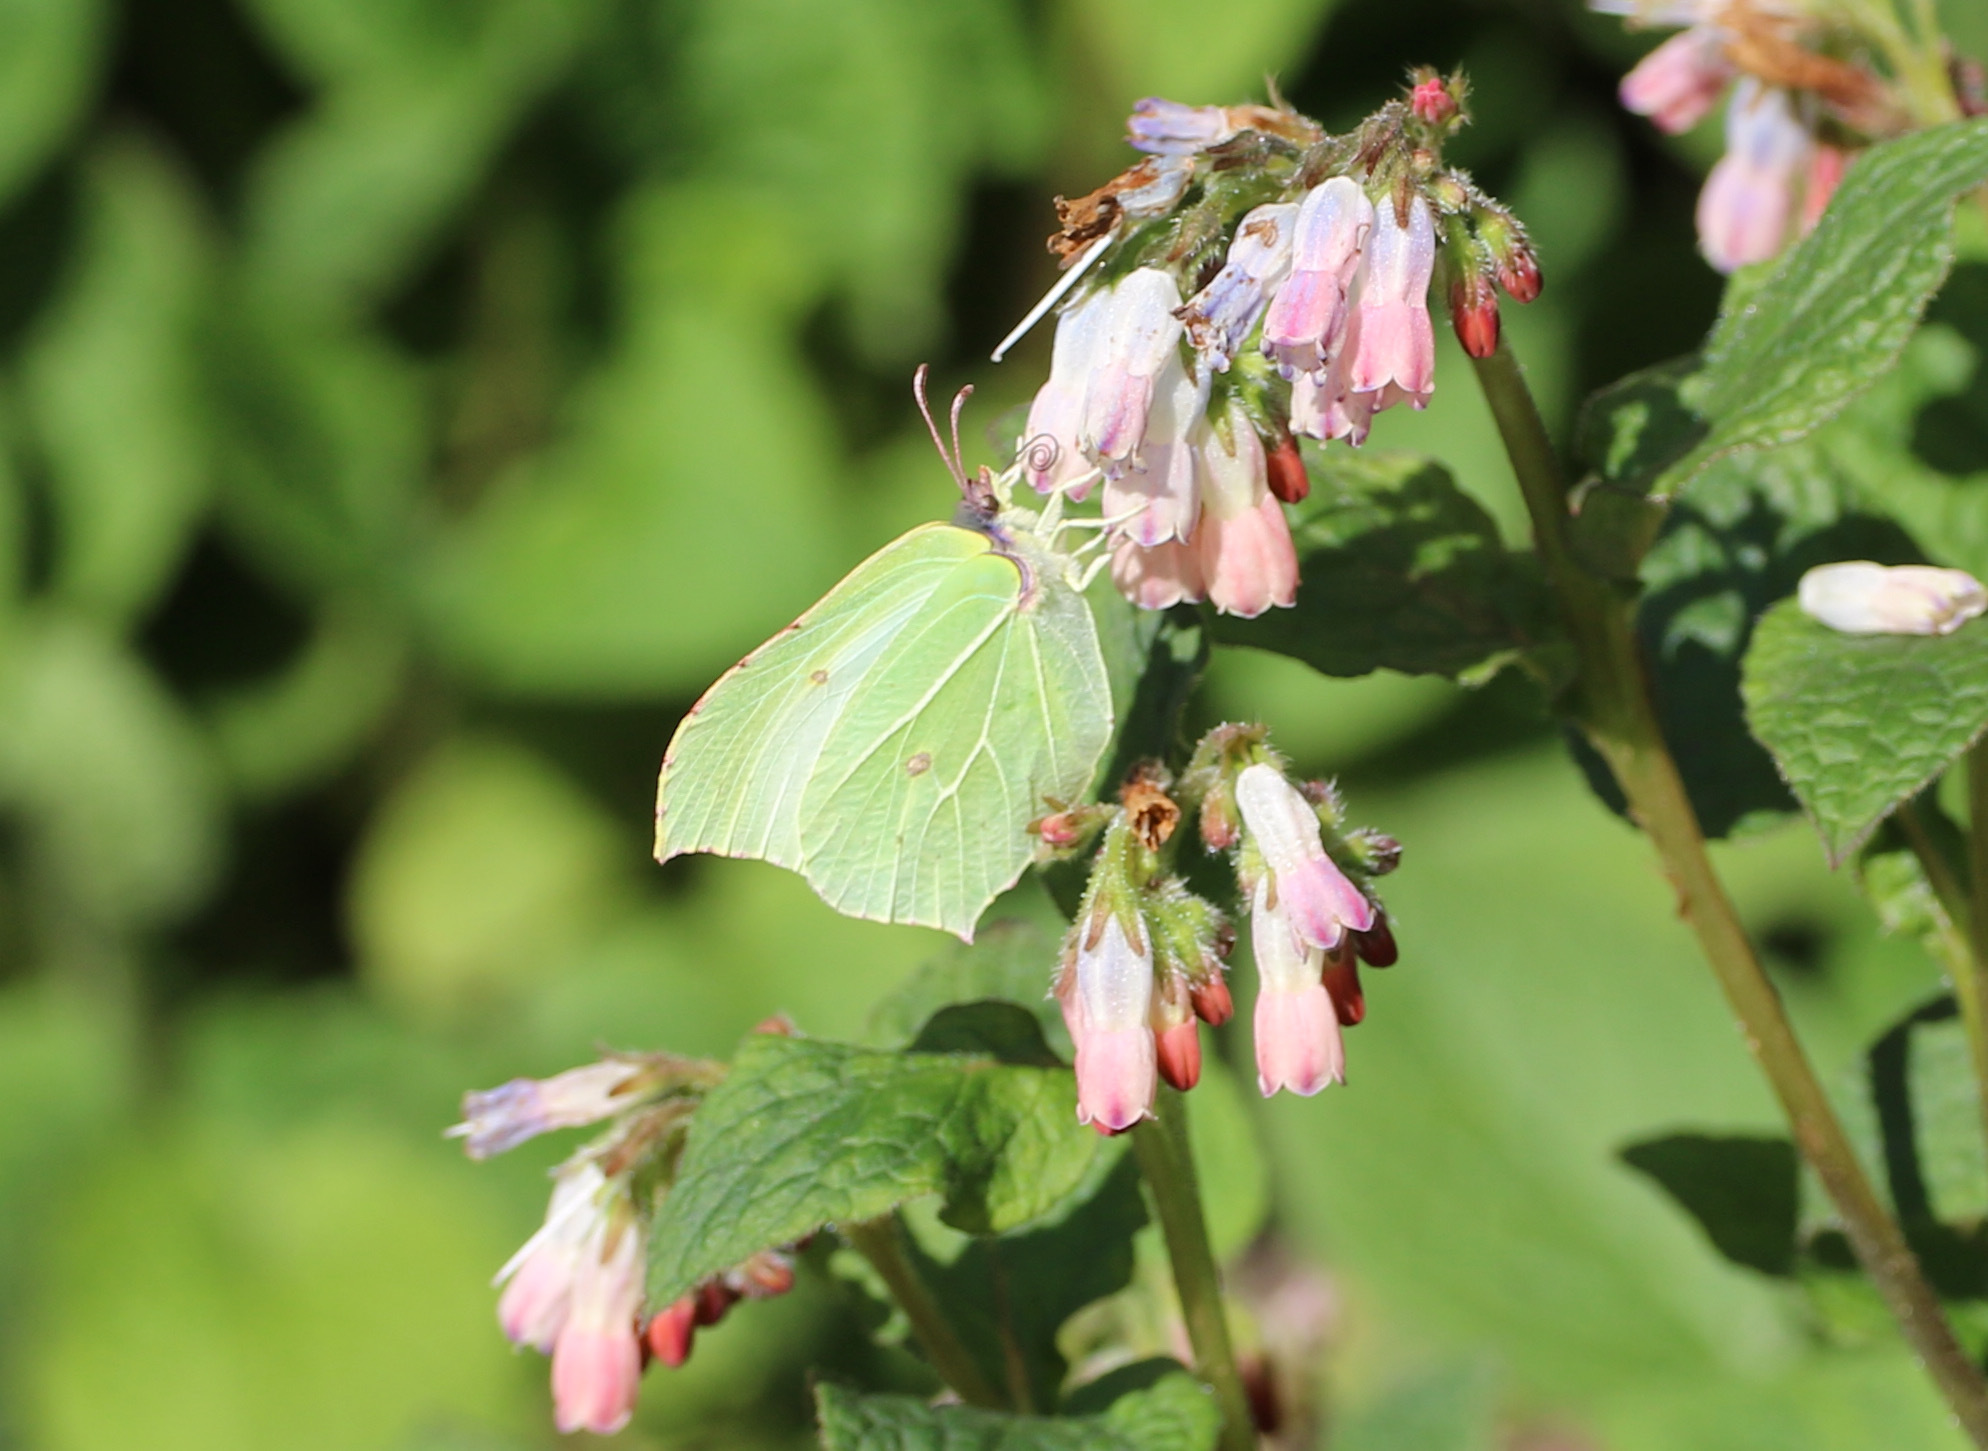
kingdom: Animalia
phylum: Arthropoda
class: Insecta
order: Lepidoptera
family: Pieridae
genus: Gonepteryx
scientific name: Gonepteryx rhamni
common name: Brimstone
